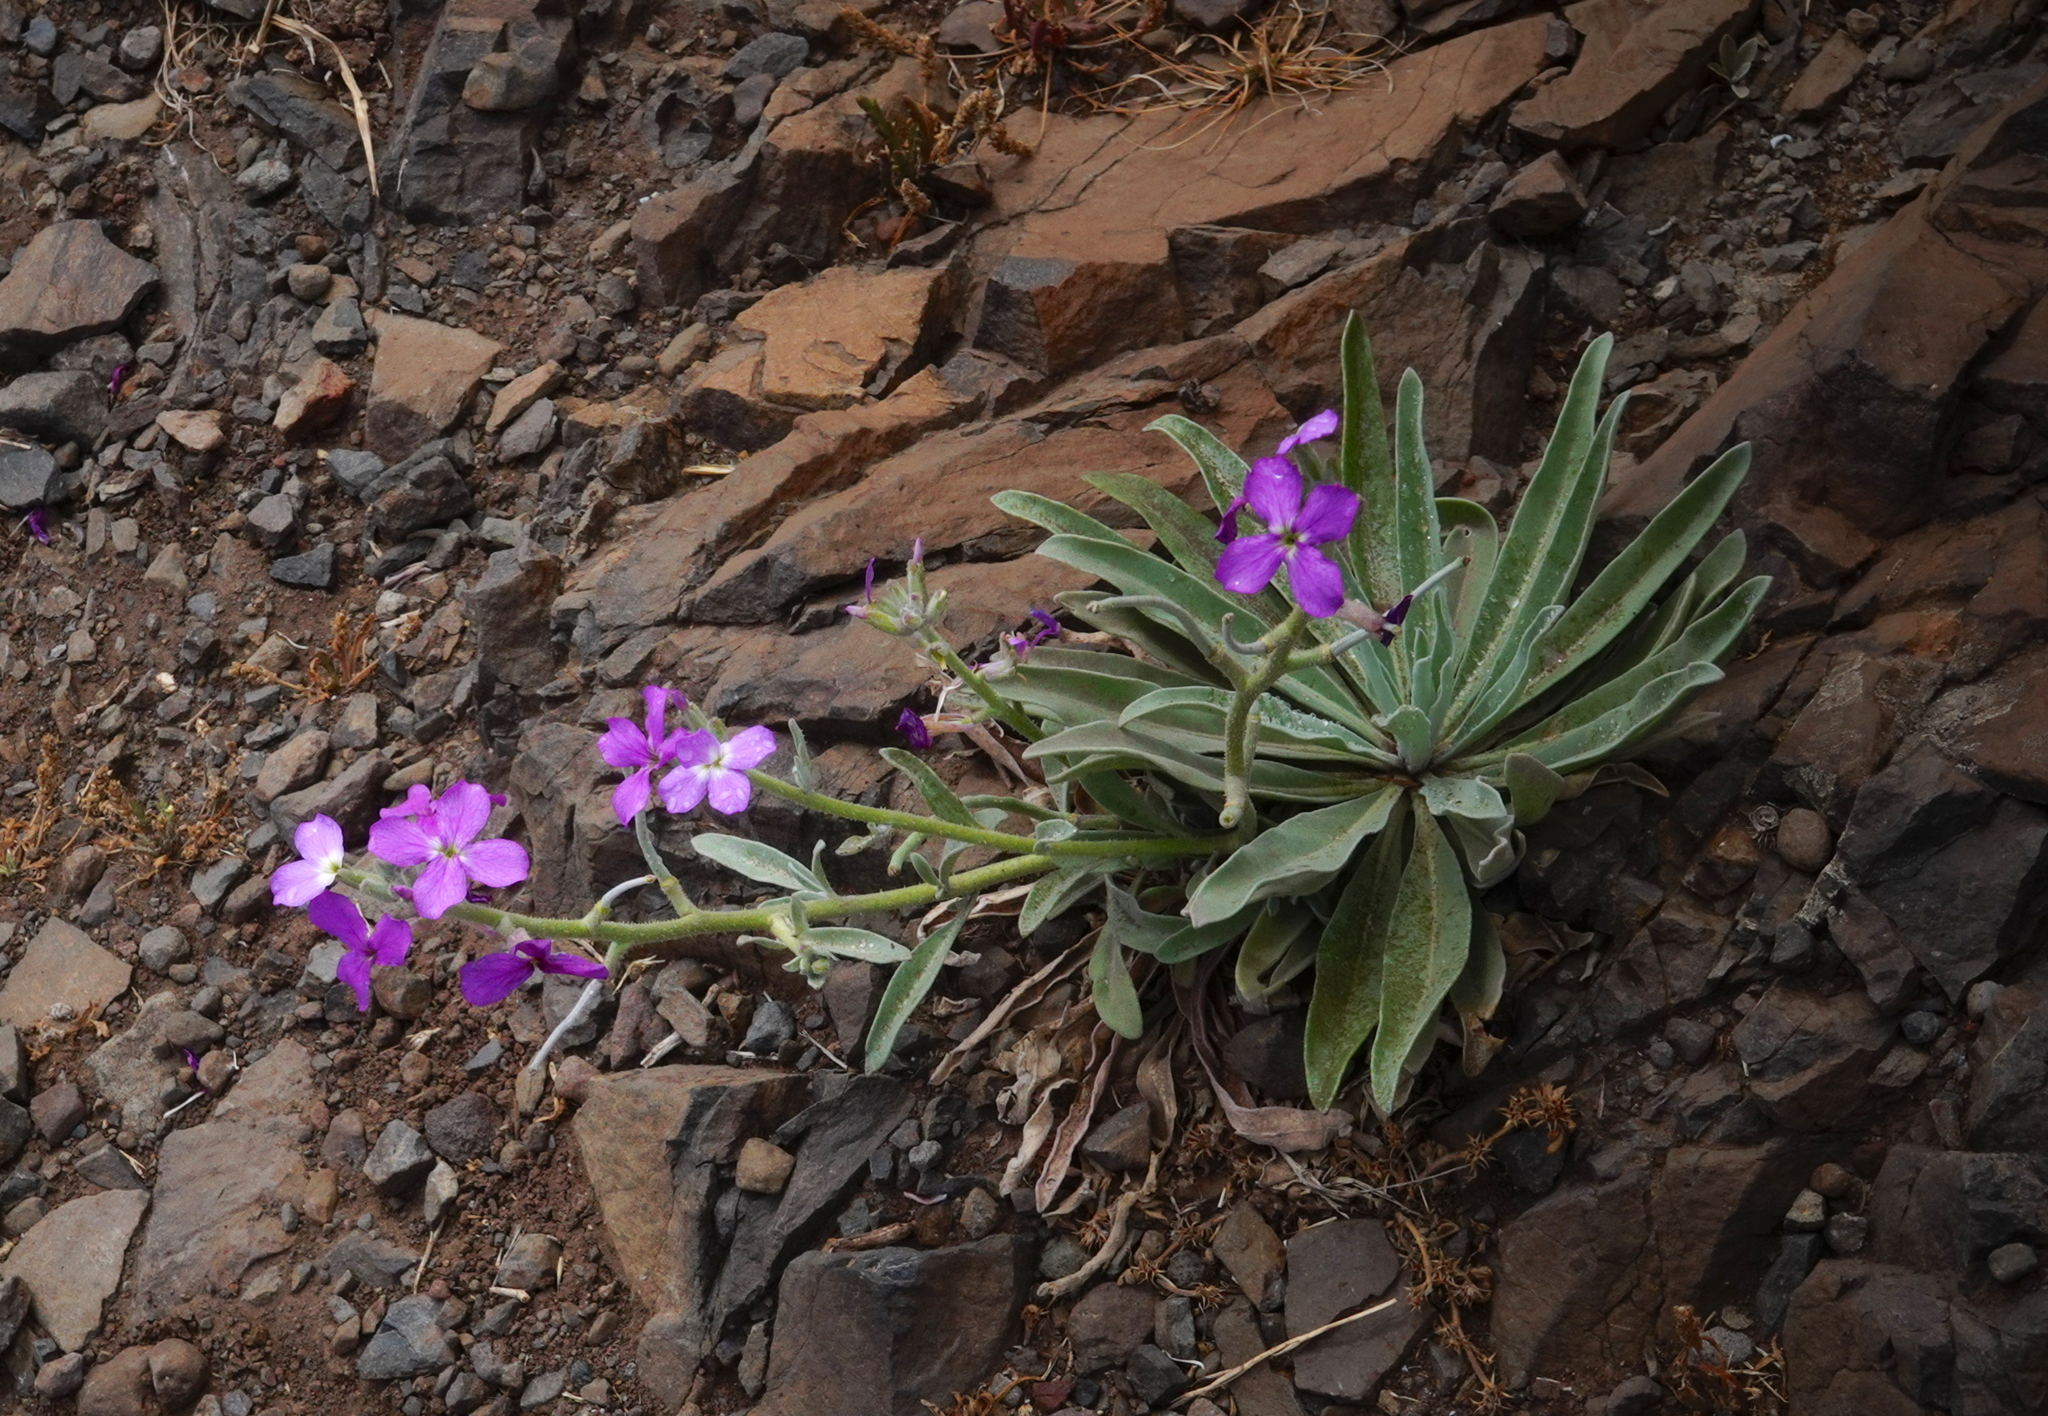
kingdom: Plantae
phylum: Tracheophyta
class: Magnoliopsida
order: Brassicales
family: Brassicaceae
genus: Matthiola
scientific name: Matthiola maderensis
